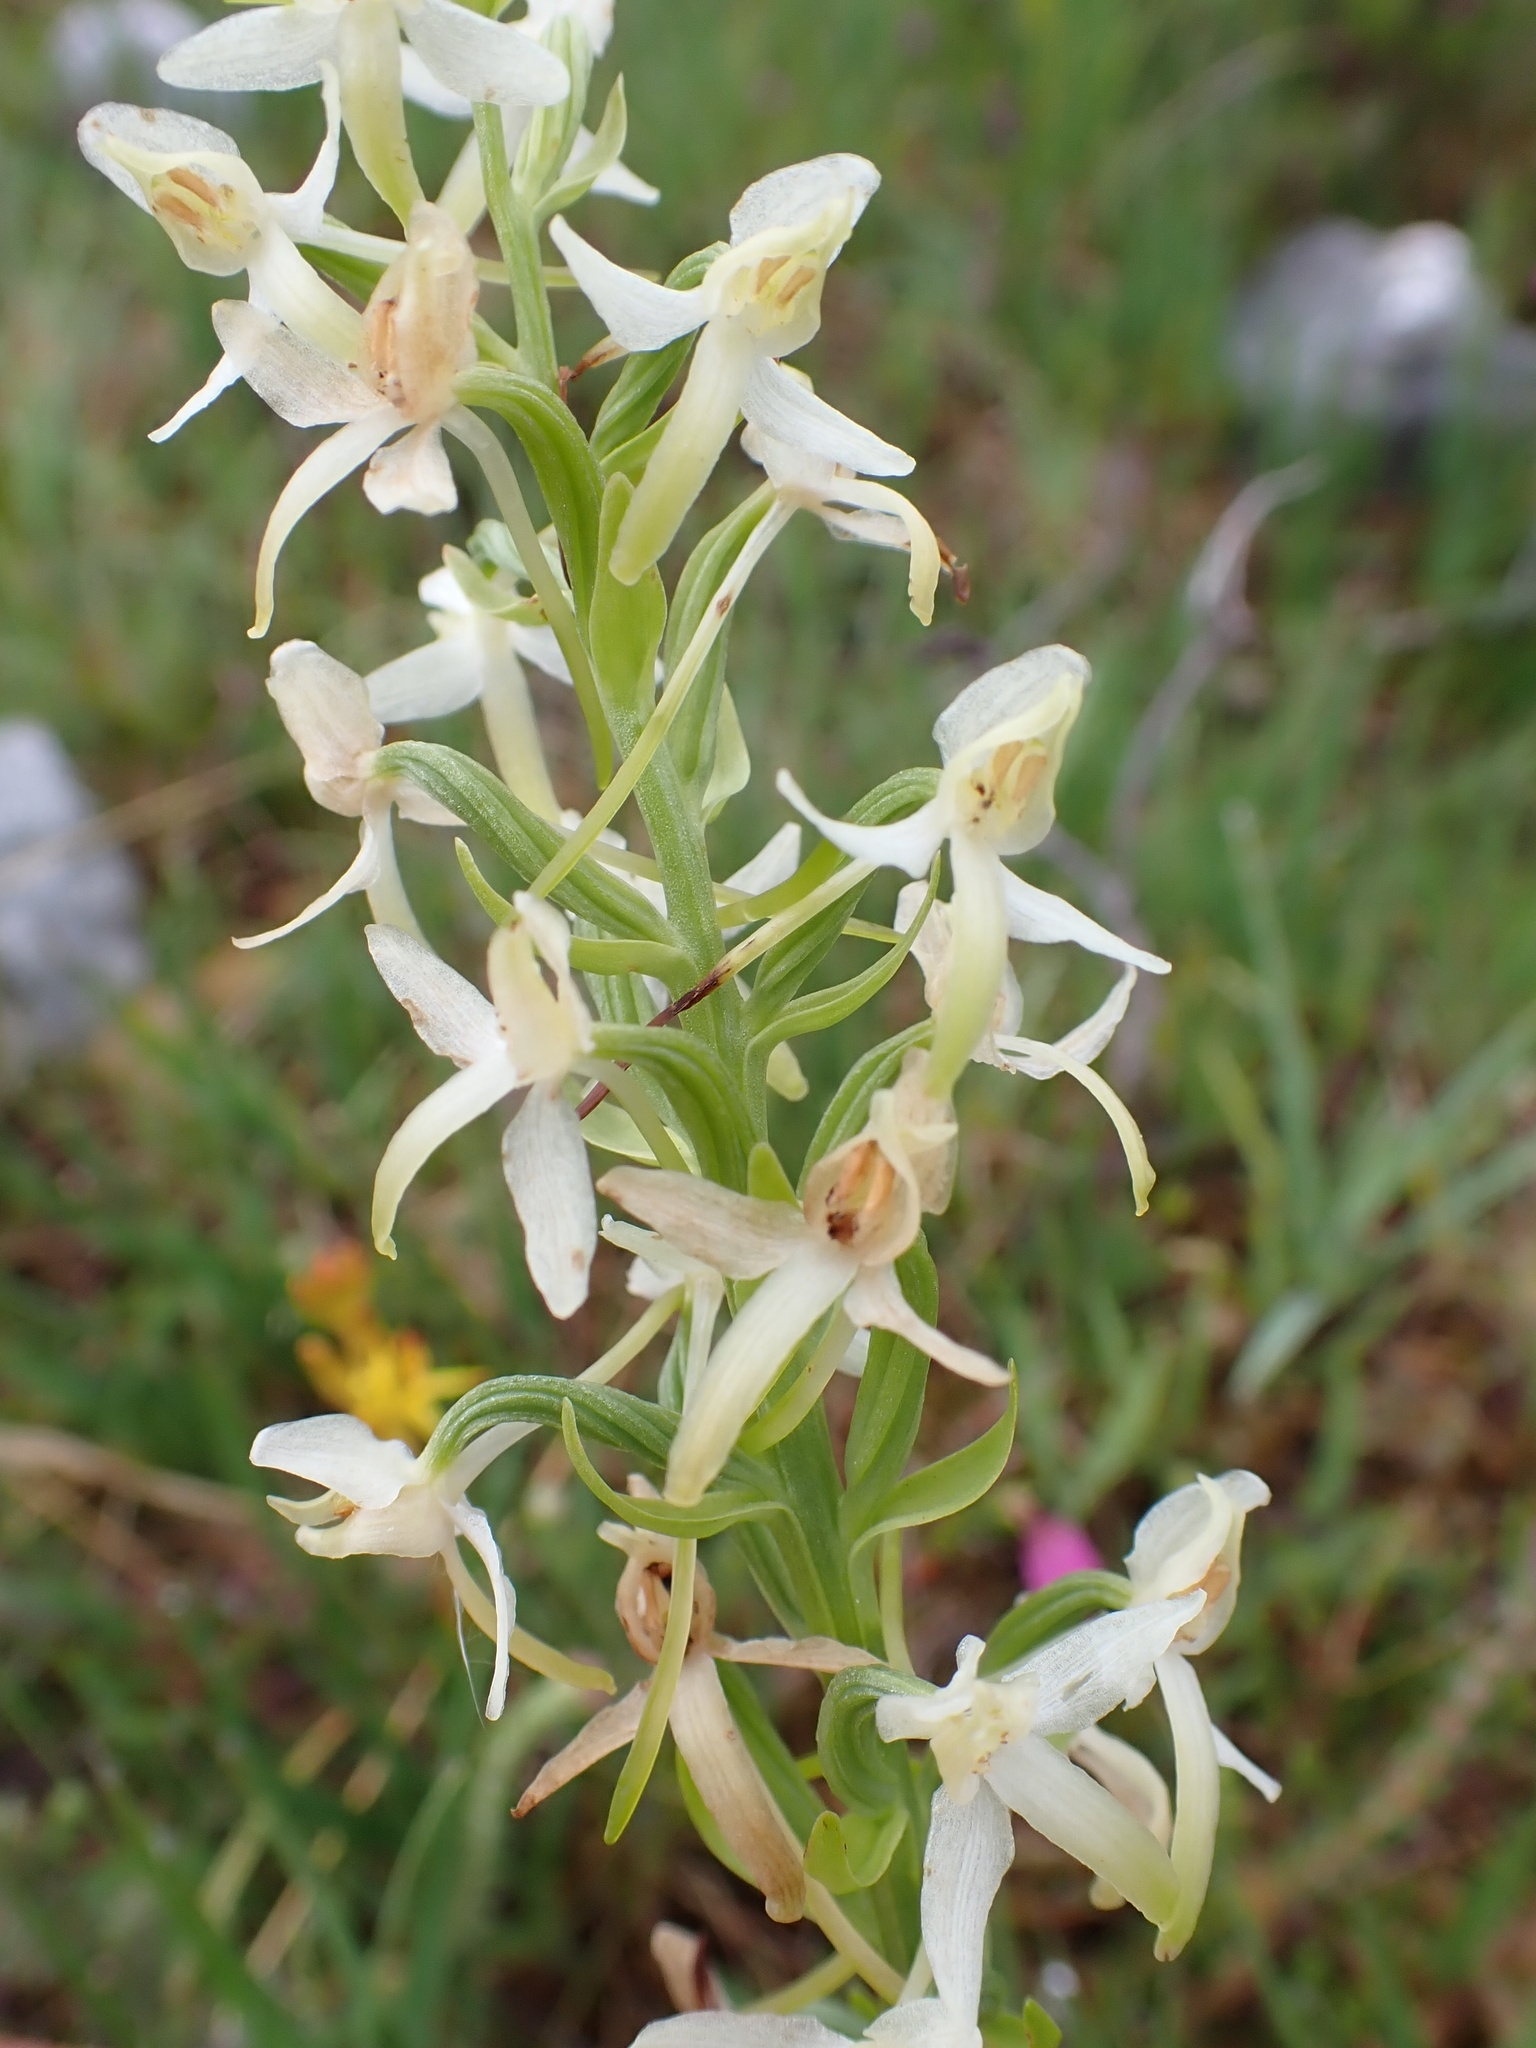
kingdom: Plantae
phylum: Tracheophyta
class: Liliopsida
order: Asparagales
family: Orchidaceae
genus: Platanthera
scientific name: Platanthera bifolia
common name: Lesser butterfly-orchid
